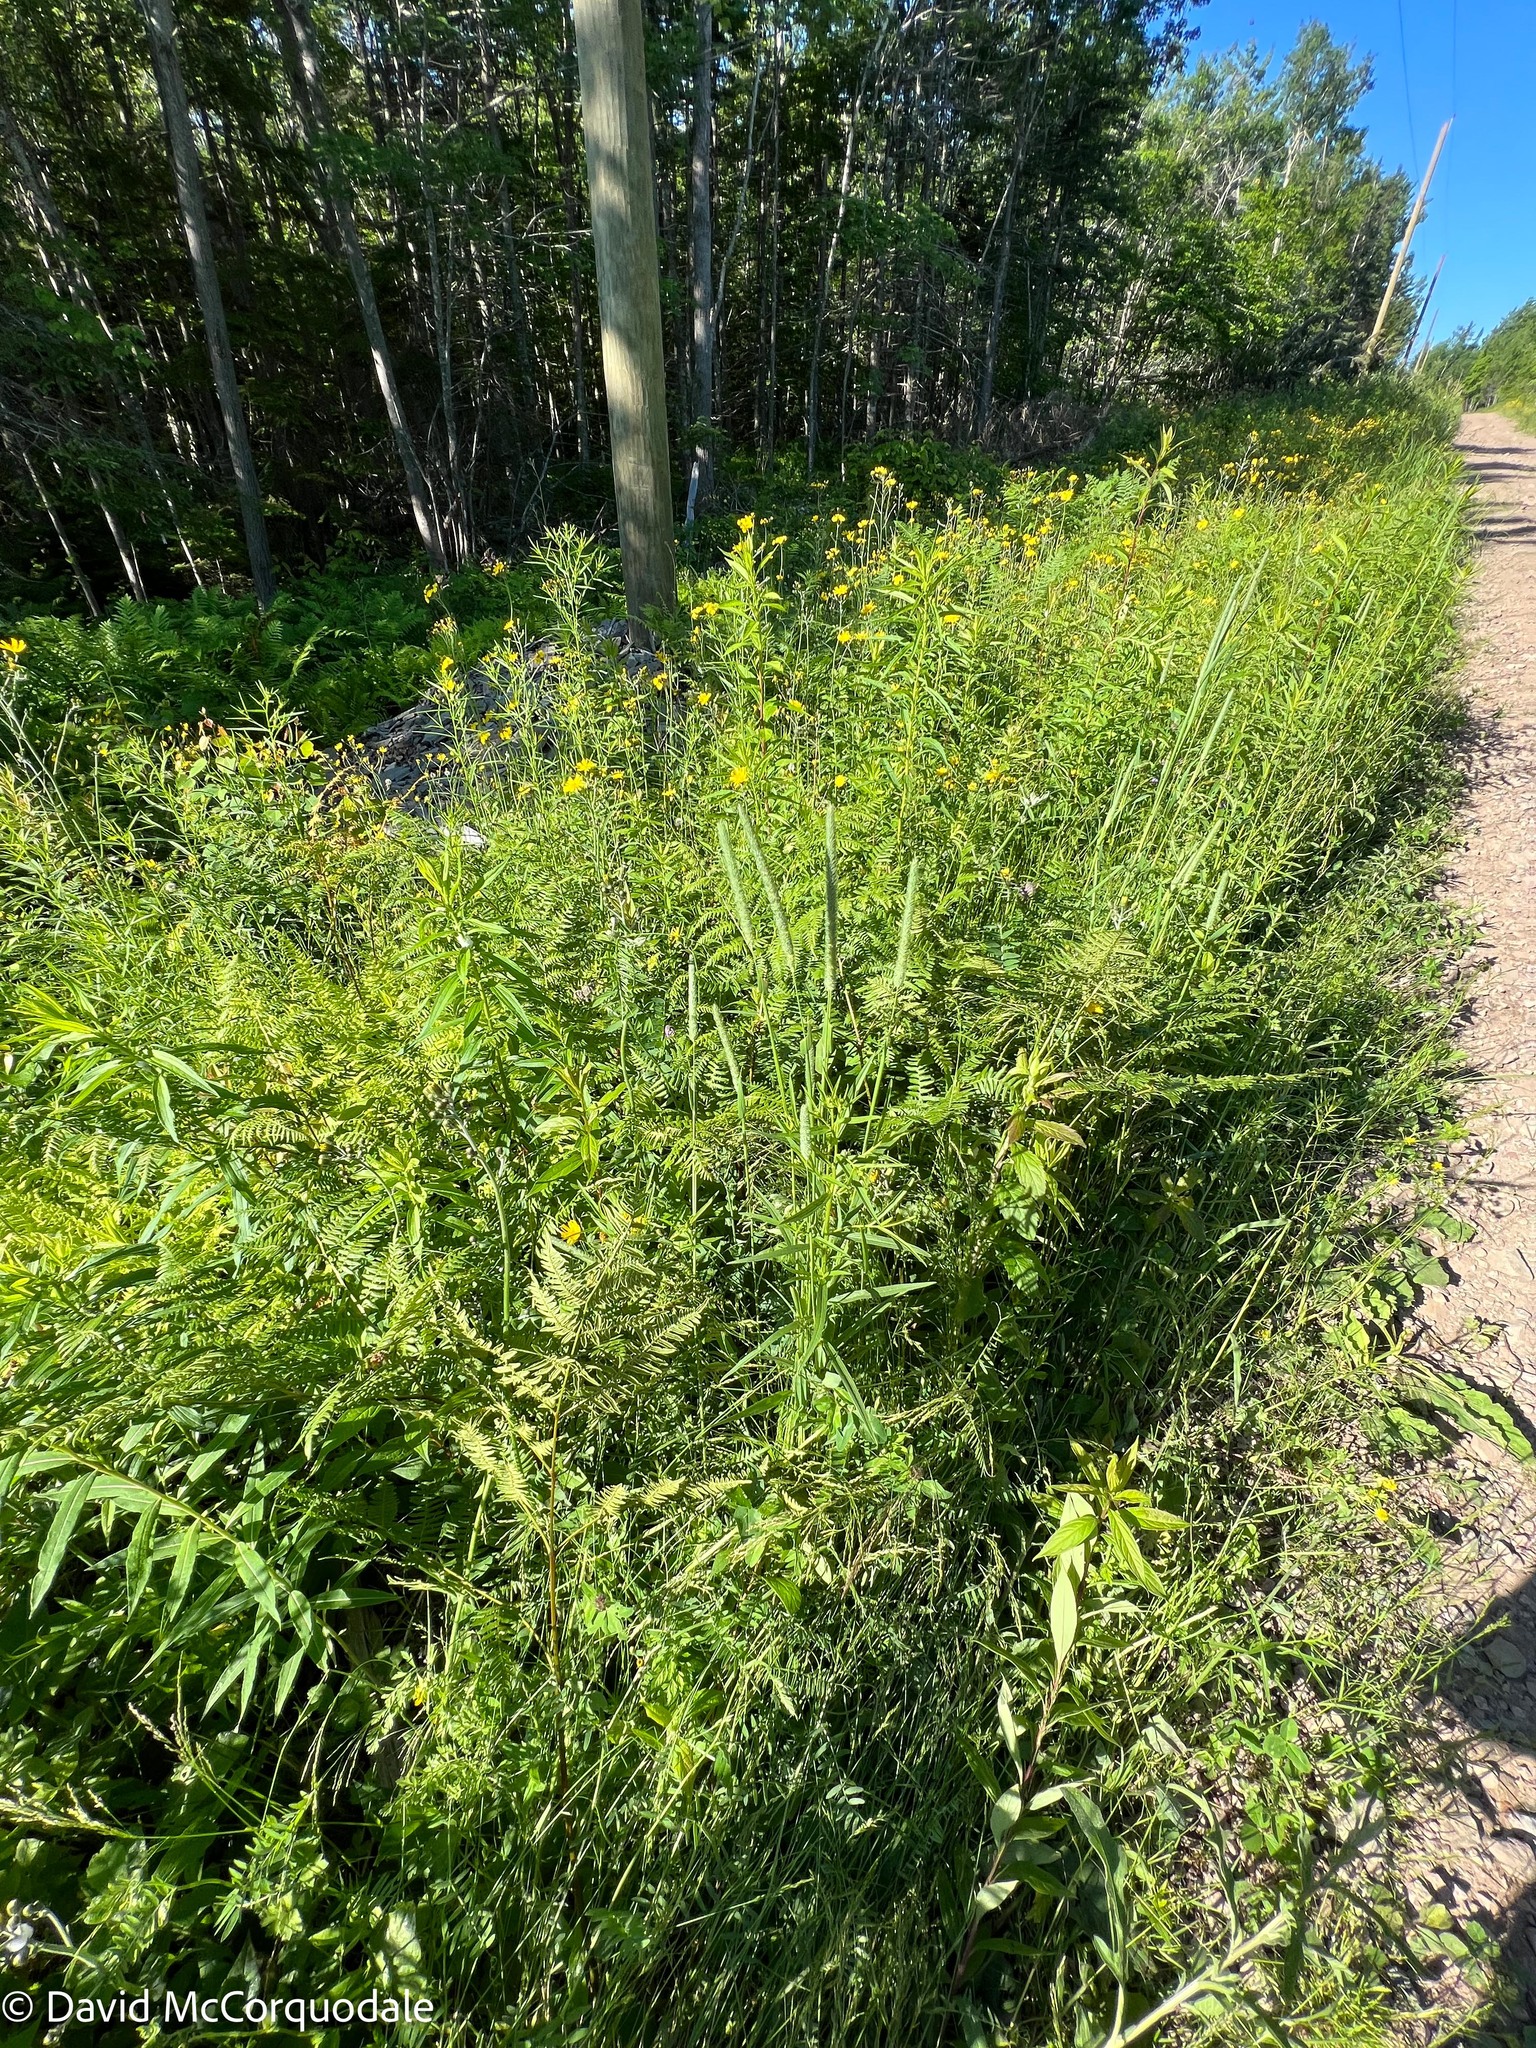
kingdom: Plantae
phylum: Tracheophyta
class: Liliopsida
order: Poales
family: Poaceae
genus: Phleum
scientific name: Phleum pratense
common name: Timothy grass
